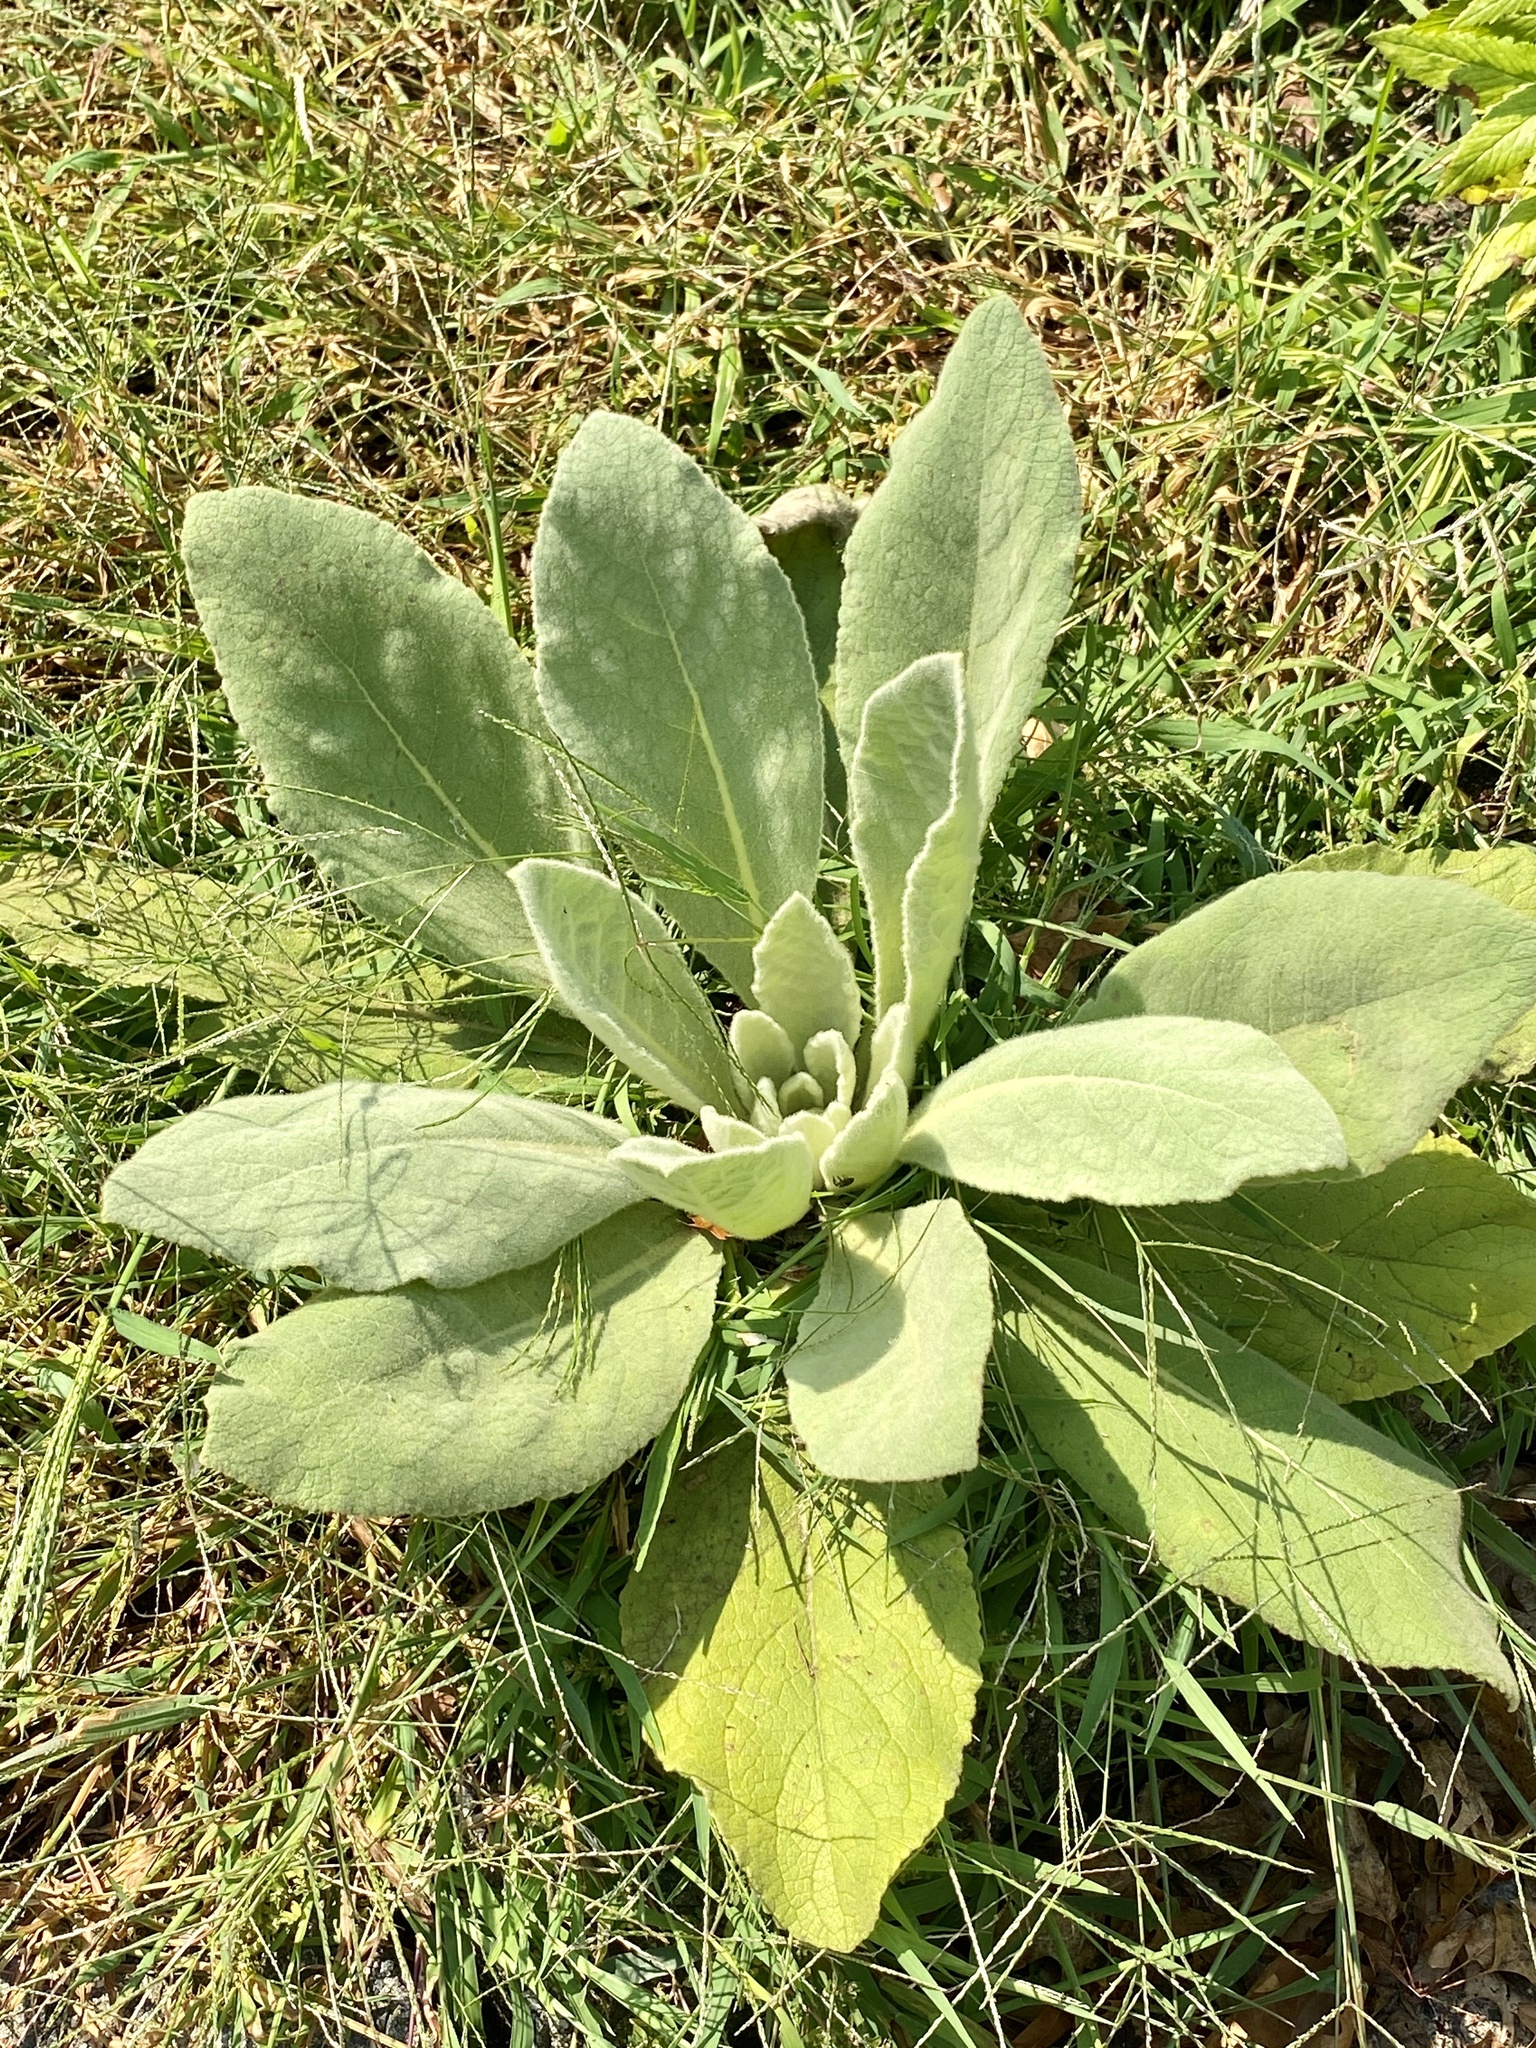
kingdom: Plantae
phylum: Tracheophyta
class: Magnoliopsida
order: Lamiales
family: Scrophulariaceae
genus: Verbascum
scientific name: Verbascum thapsus
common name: Common mullein
